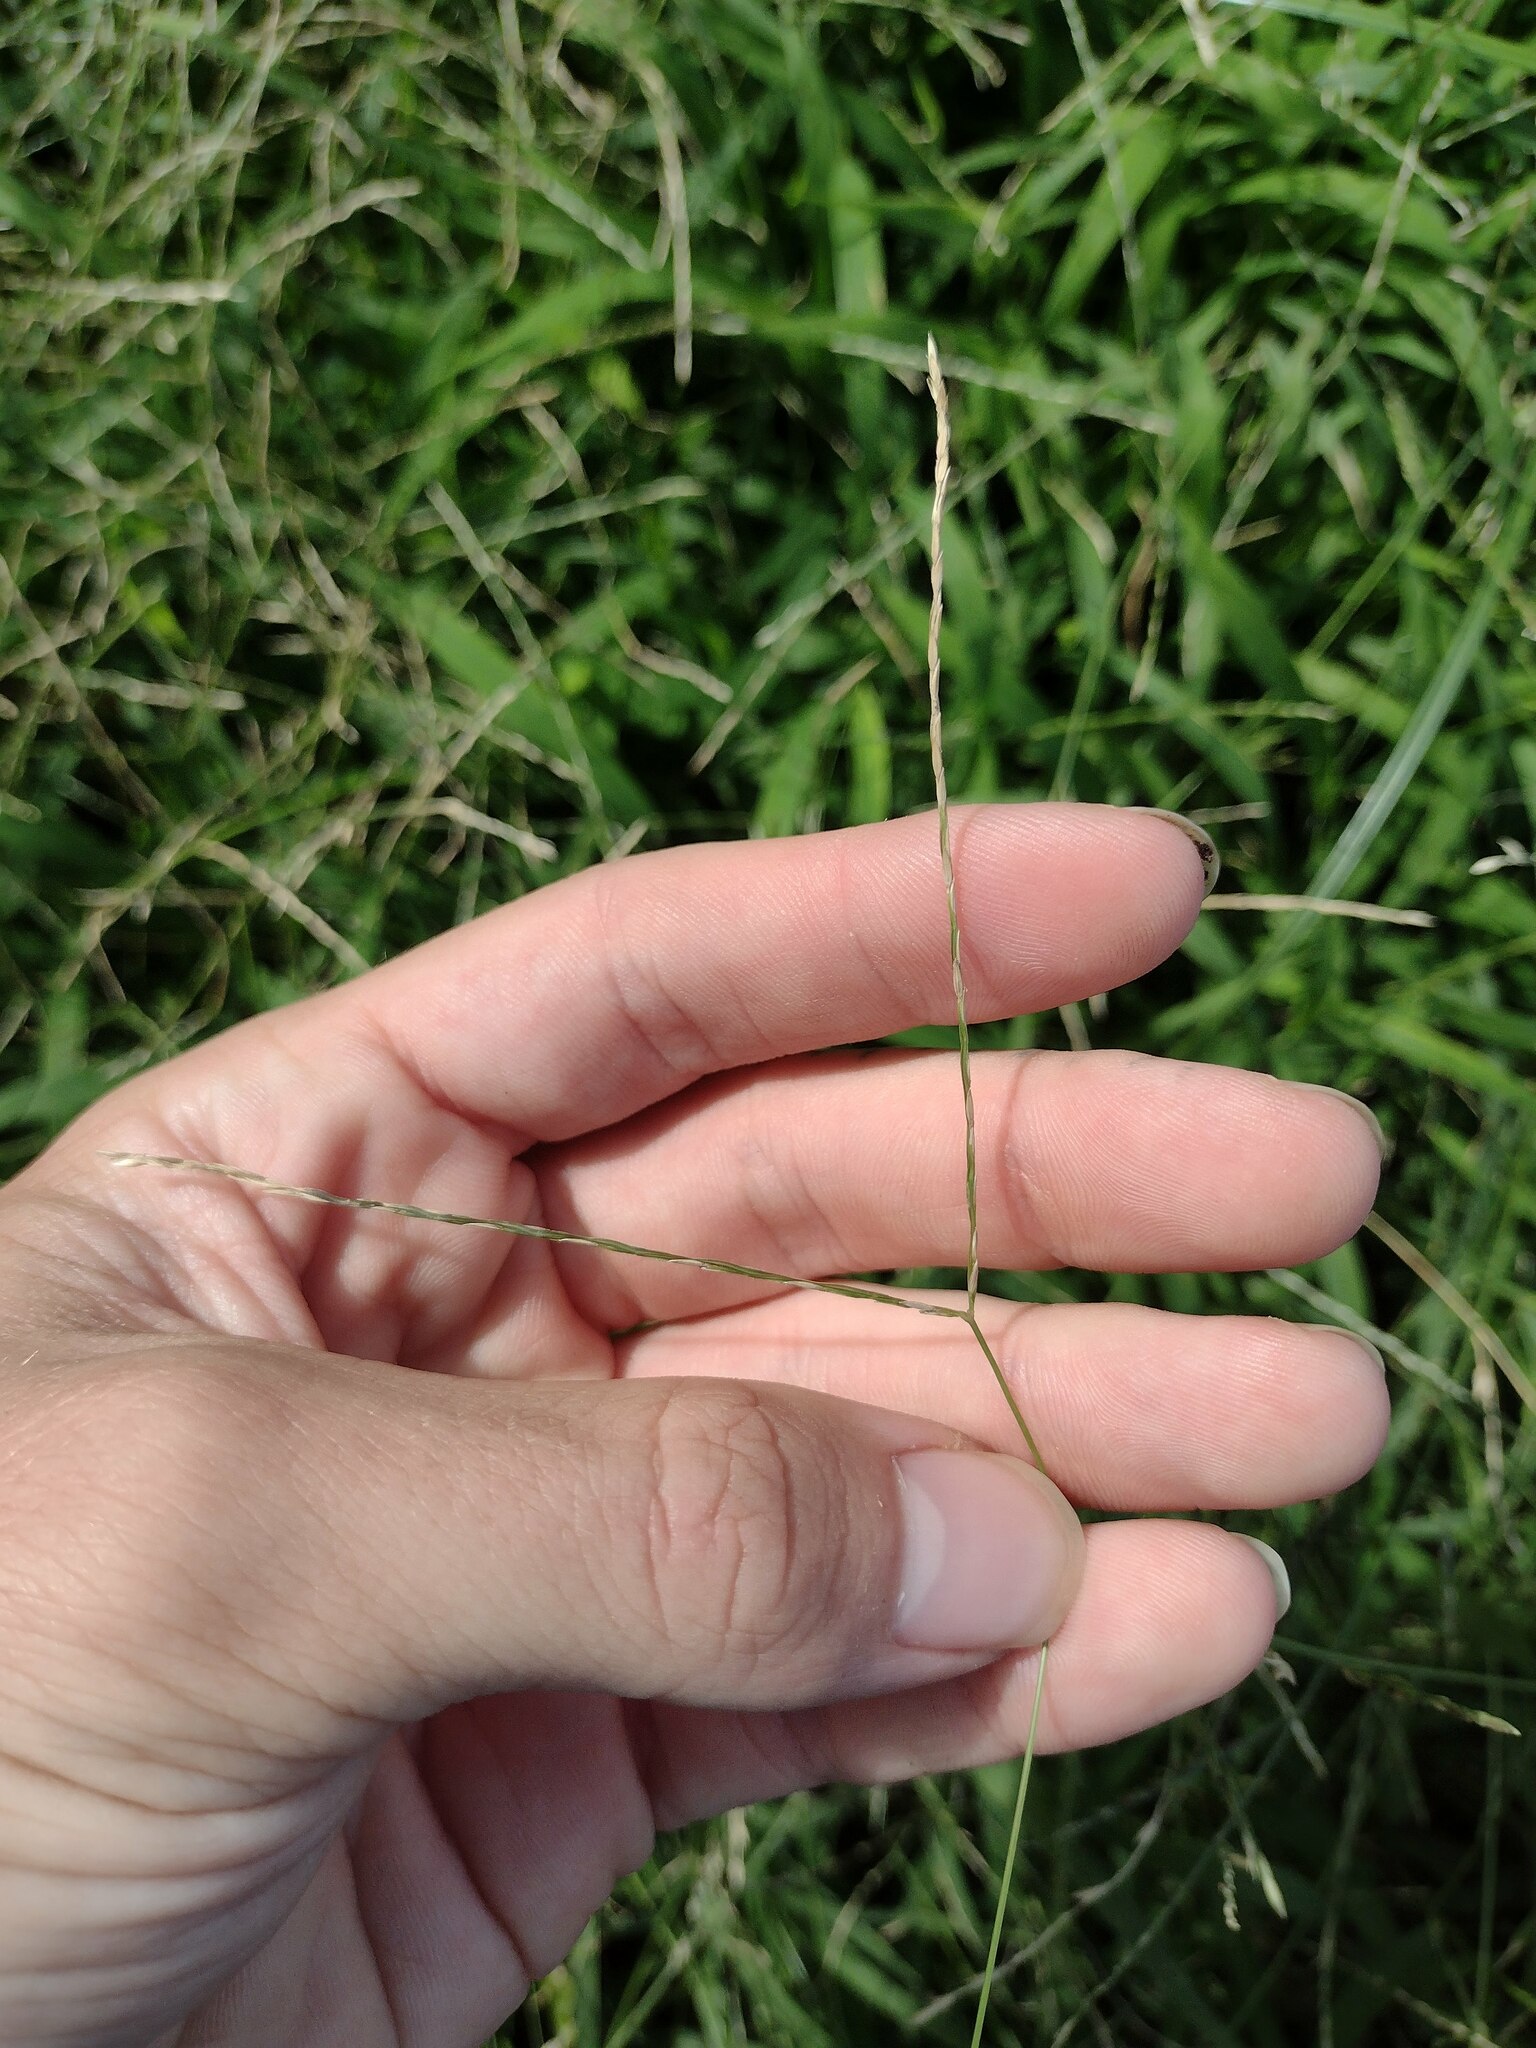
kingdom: Plantae
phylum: Tracheophyta
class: Liliopsida
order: Poales
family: Poaceae
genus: Digitaria
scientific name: Digitaria radicosa
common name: Trailing crabgrass
